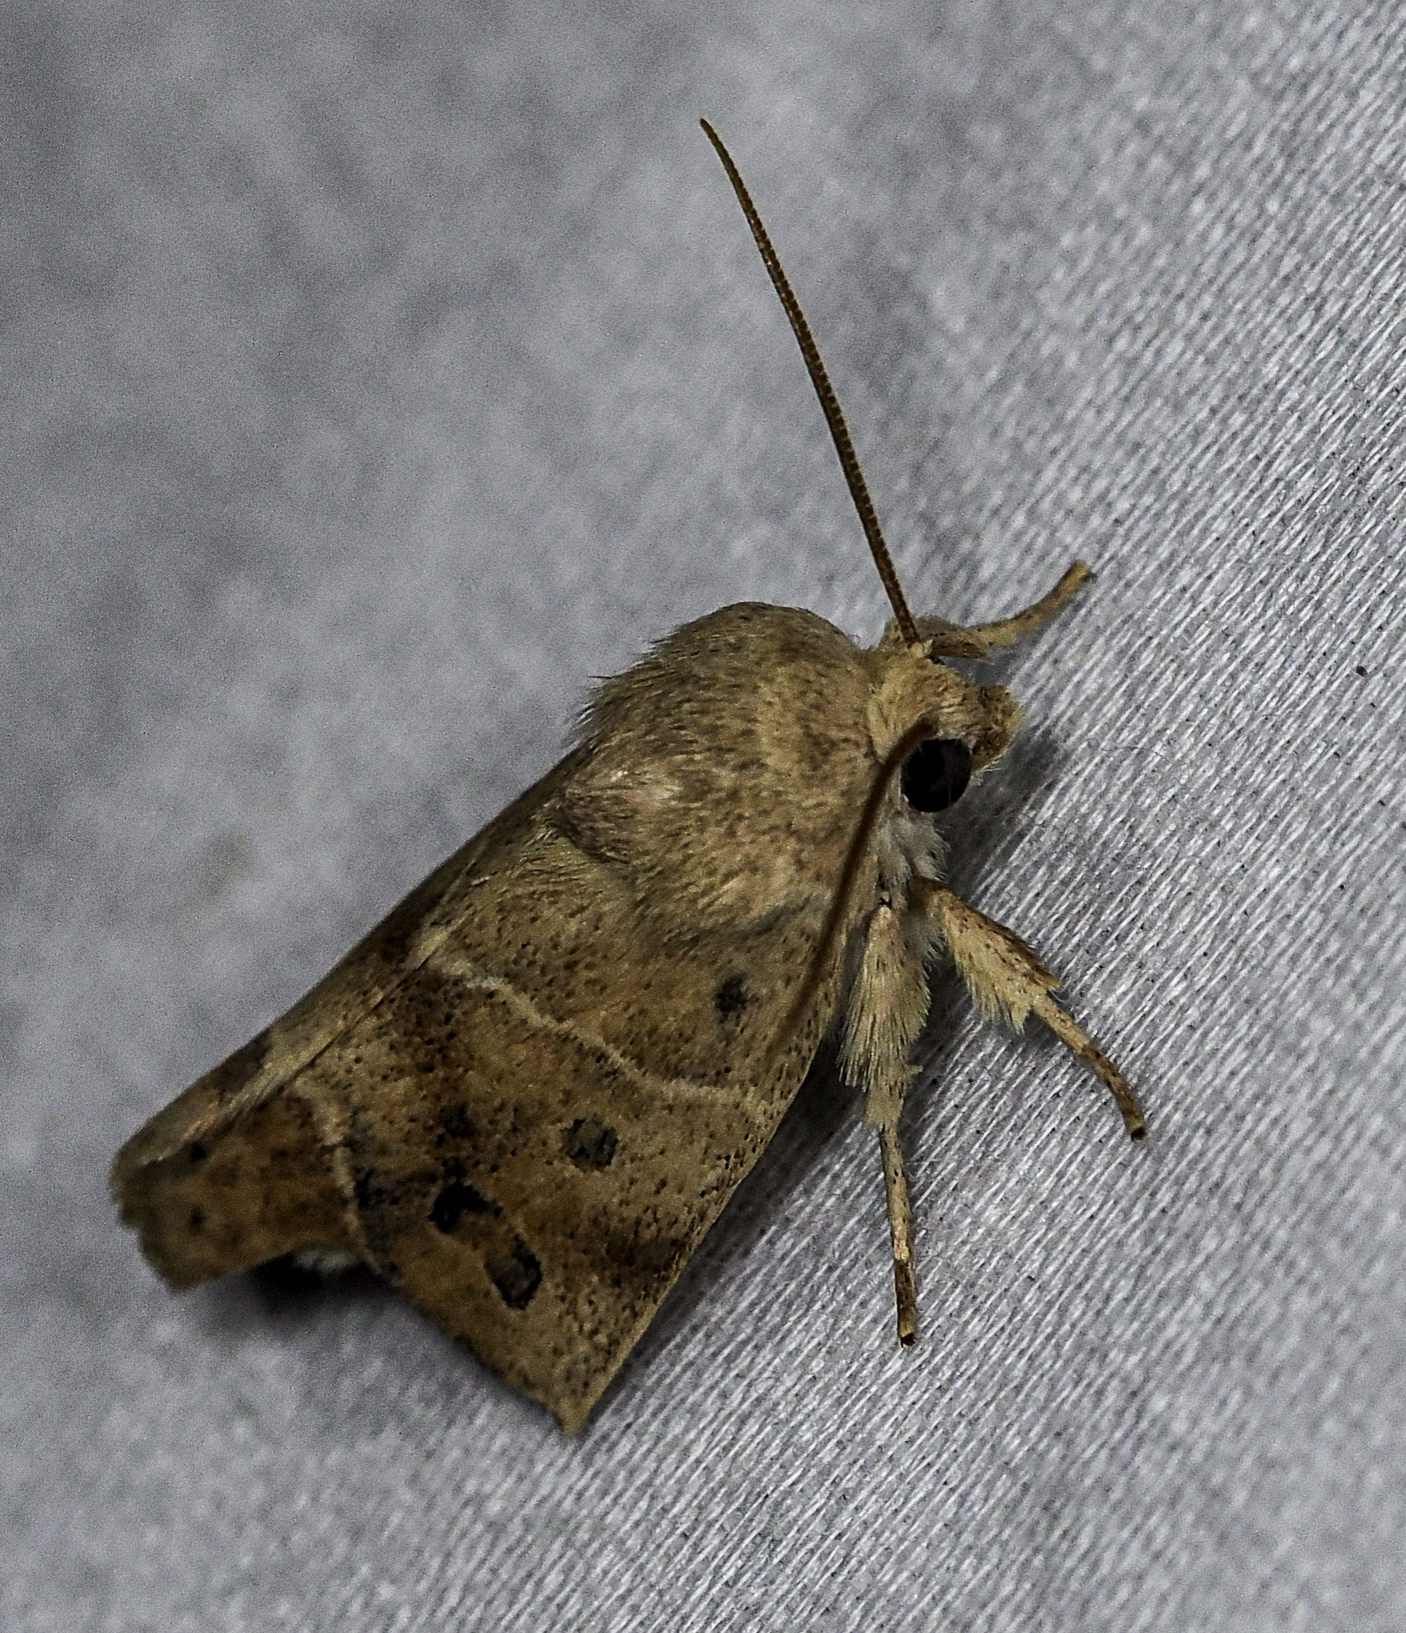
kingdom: Animalia
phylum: Arthropoda
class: Insecta
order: Lepidoptera
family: Noctuidae
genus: Cosmia
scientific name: Cosmia calami
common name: American dun-bar moth
